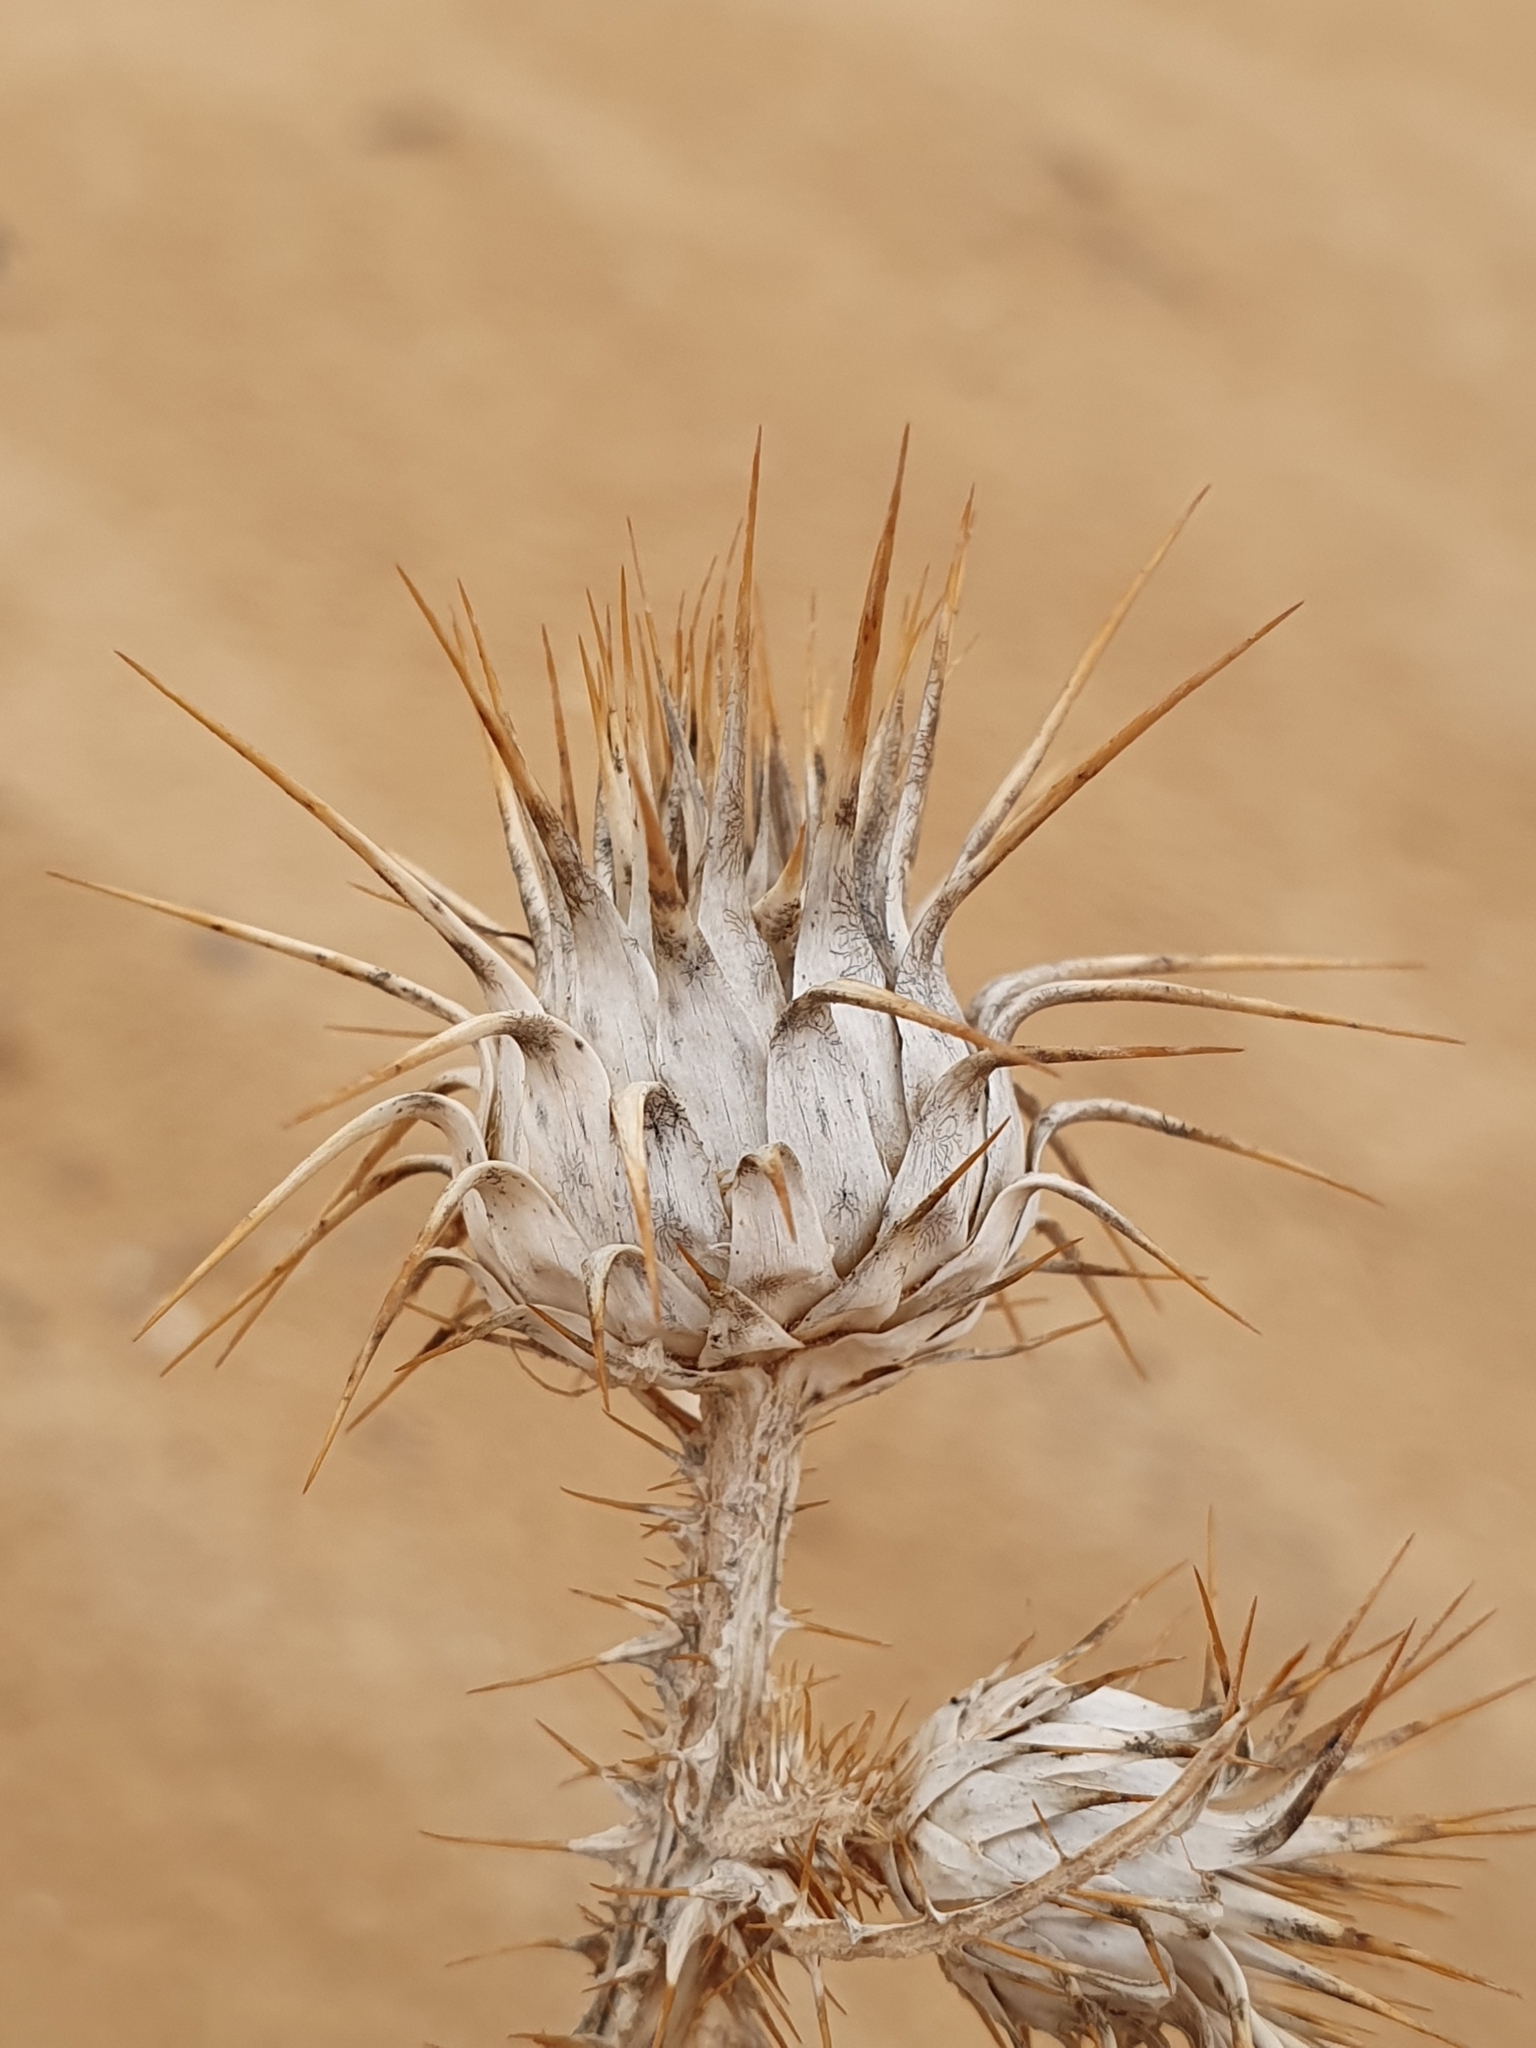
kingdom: Plantae
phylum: Tracheophyta
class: Magnoliopsida
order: Asterales
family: Asteraceae
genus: Onopordum
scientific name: Onopordum arenarium
